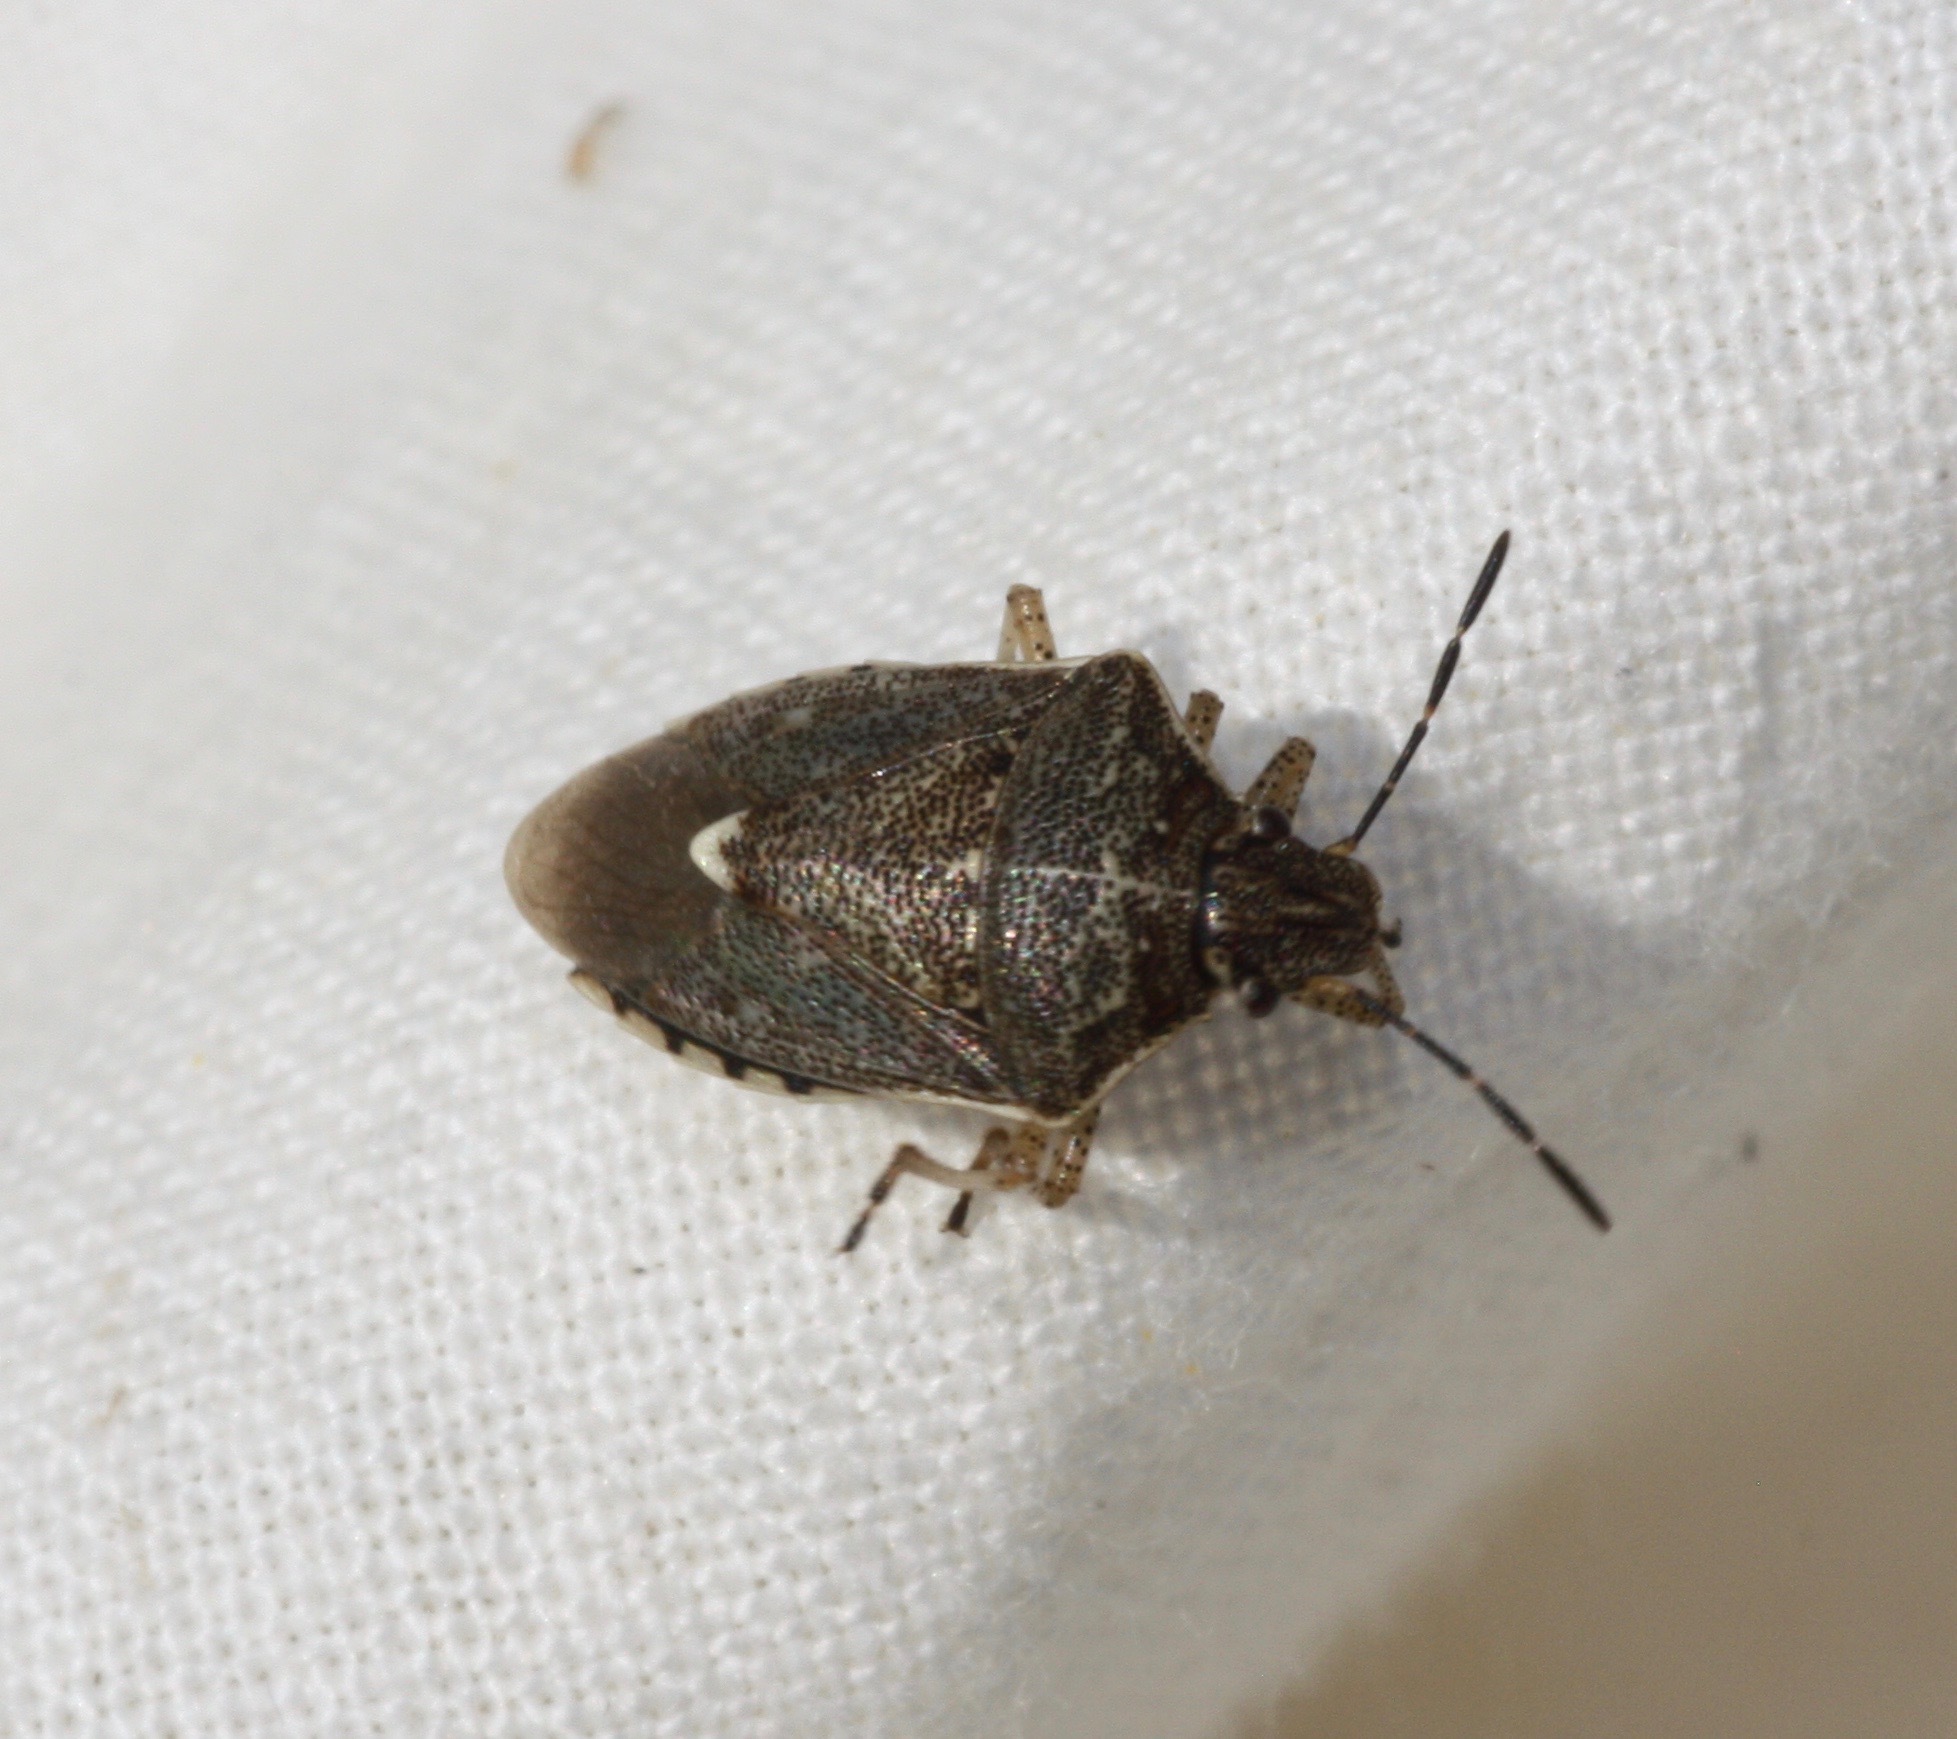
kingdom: Animalia
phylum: Arthropoda
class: Insecta
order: Hemiptera
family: Pentatomidae
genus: Moromorpha
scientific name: Moromorpha tetra
